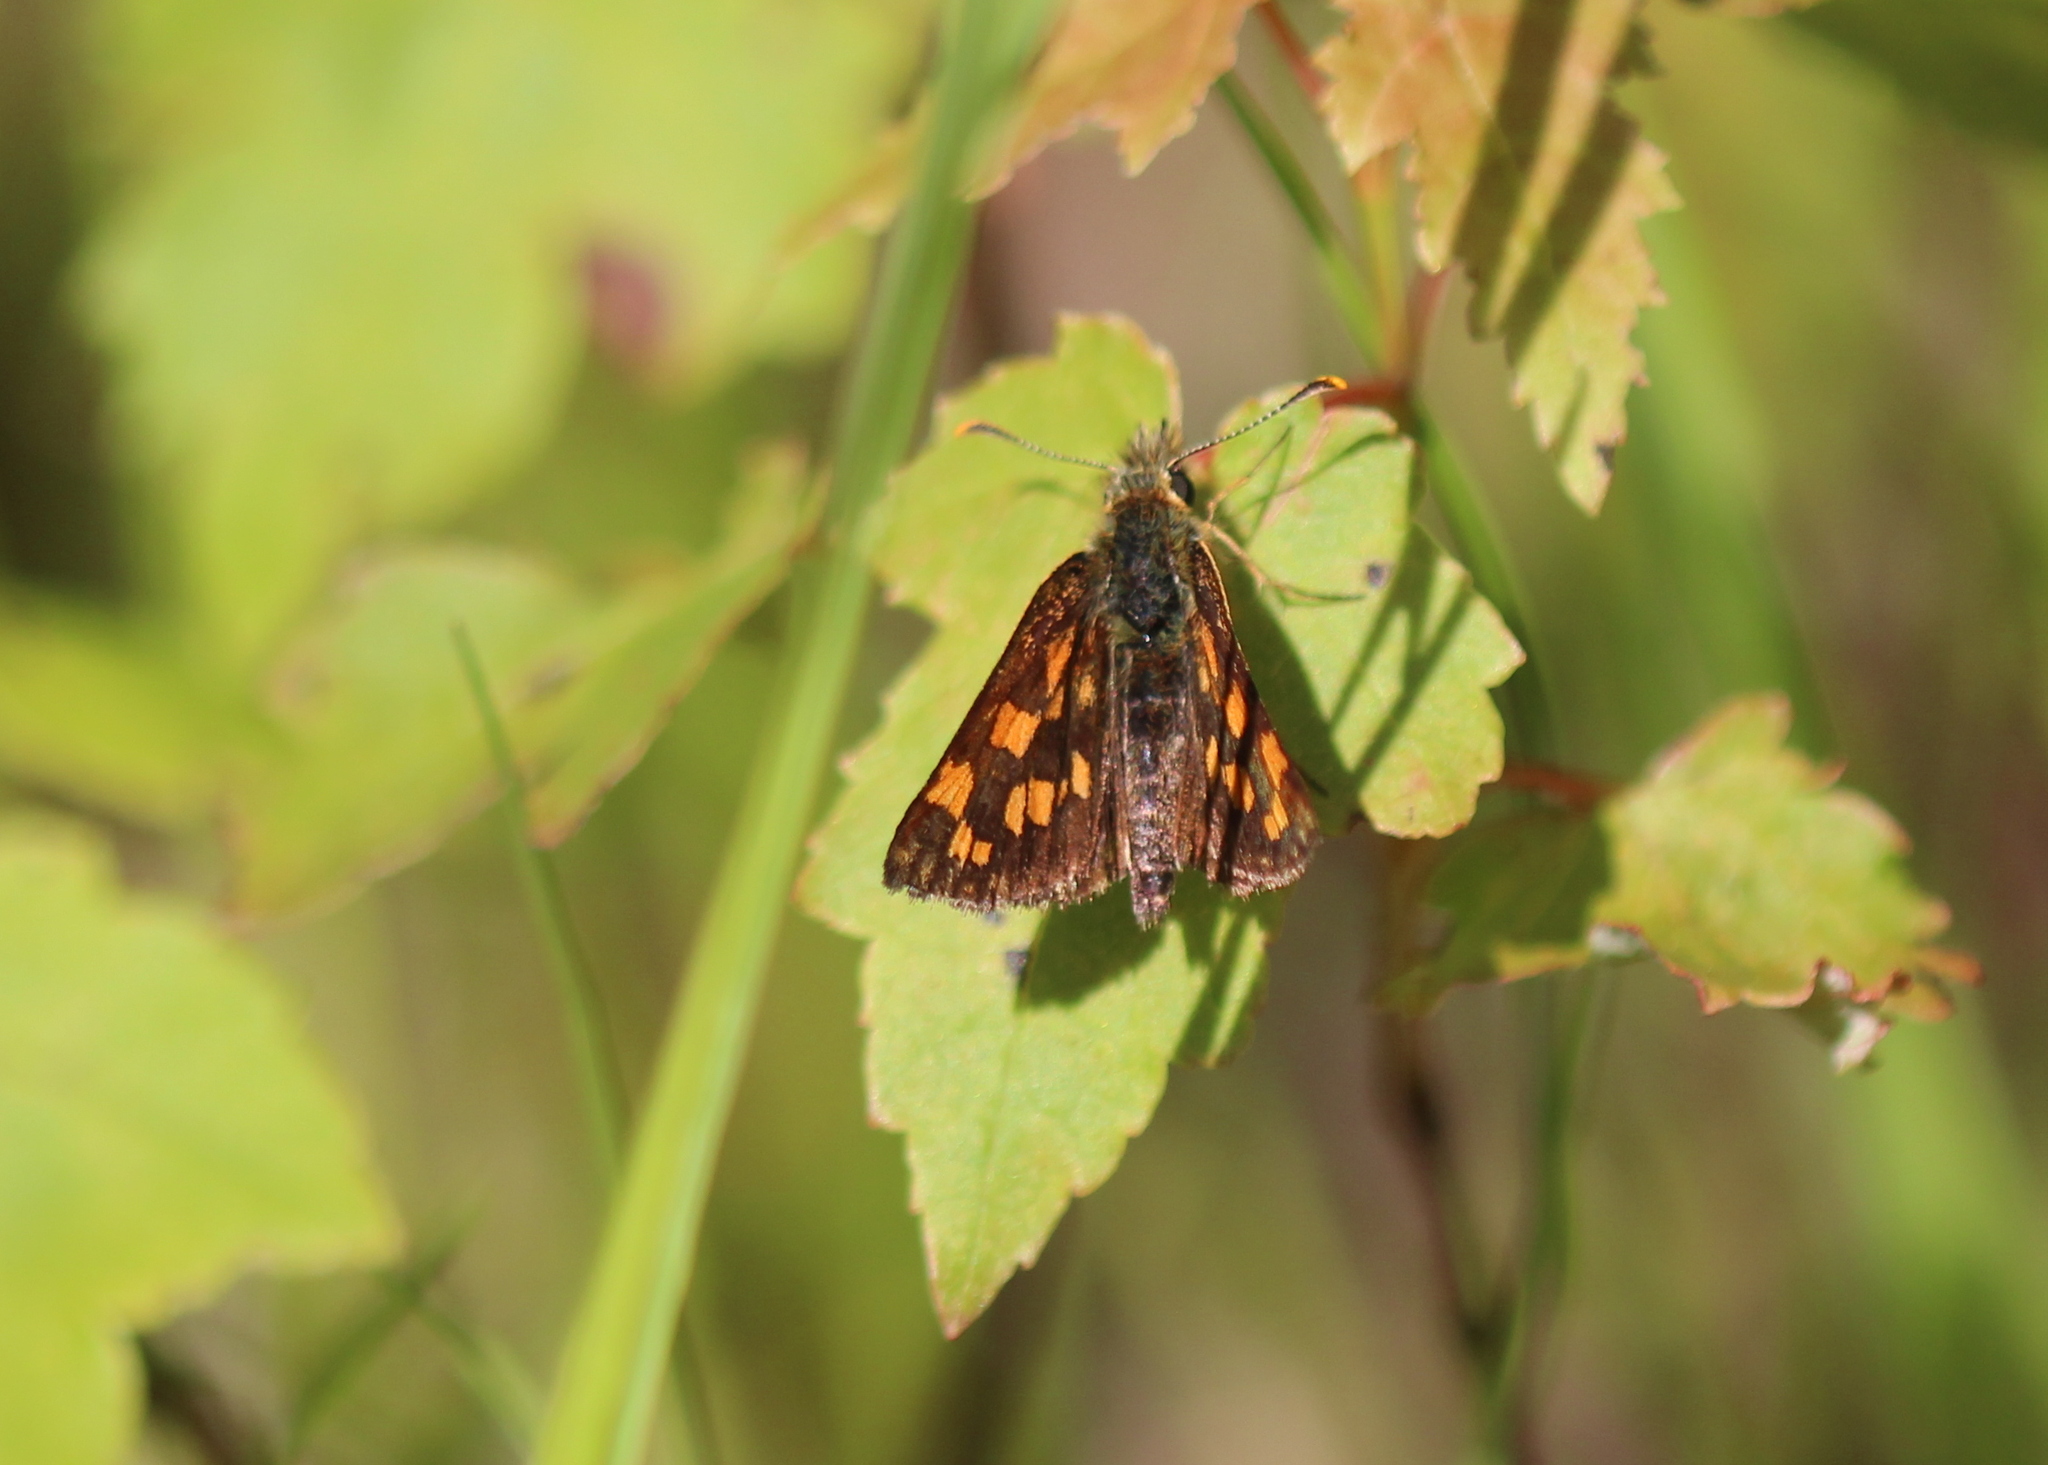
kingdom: Animalia
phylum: Arthropoda
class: Insecta
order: Lepidoptera
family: Hesperiidae
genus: Carterocephalus
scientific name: Carterocephalus mandan
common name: Arctic skipperling
